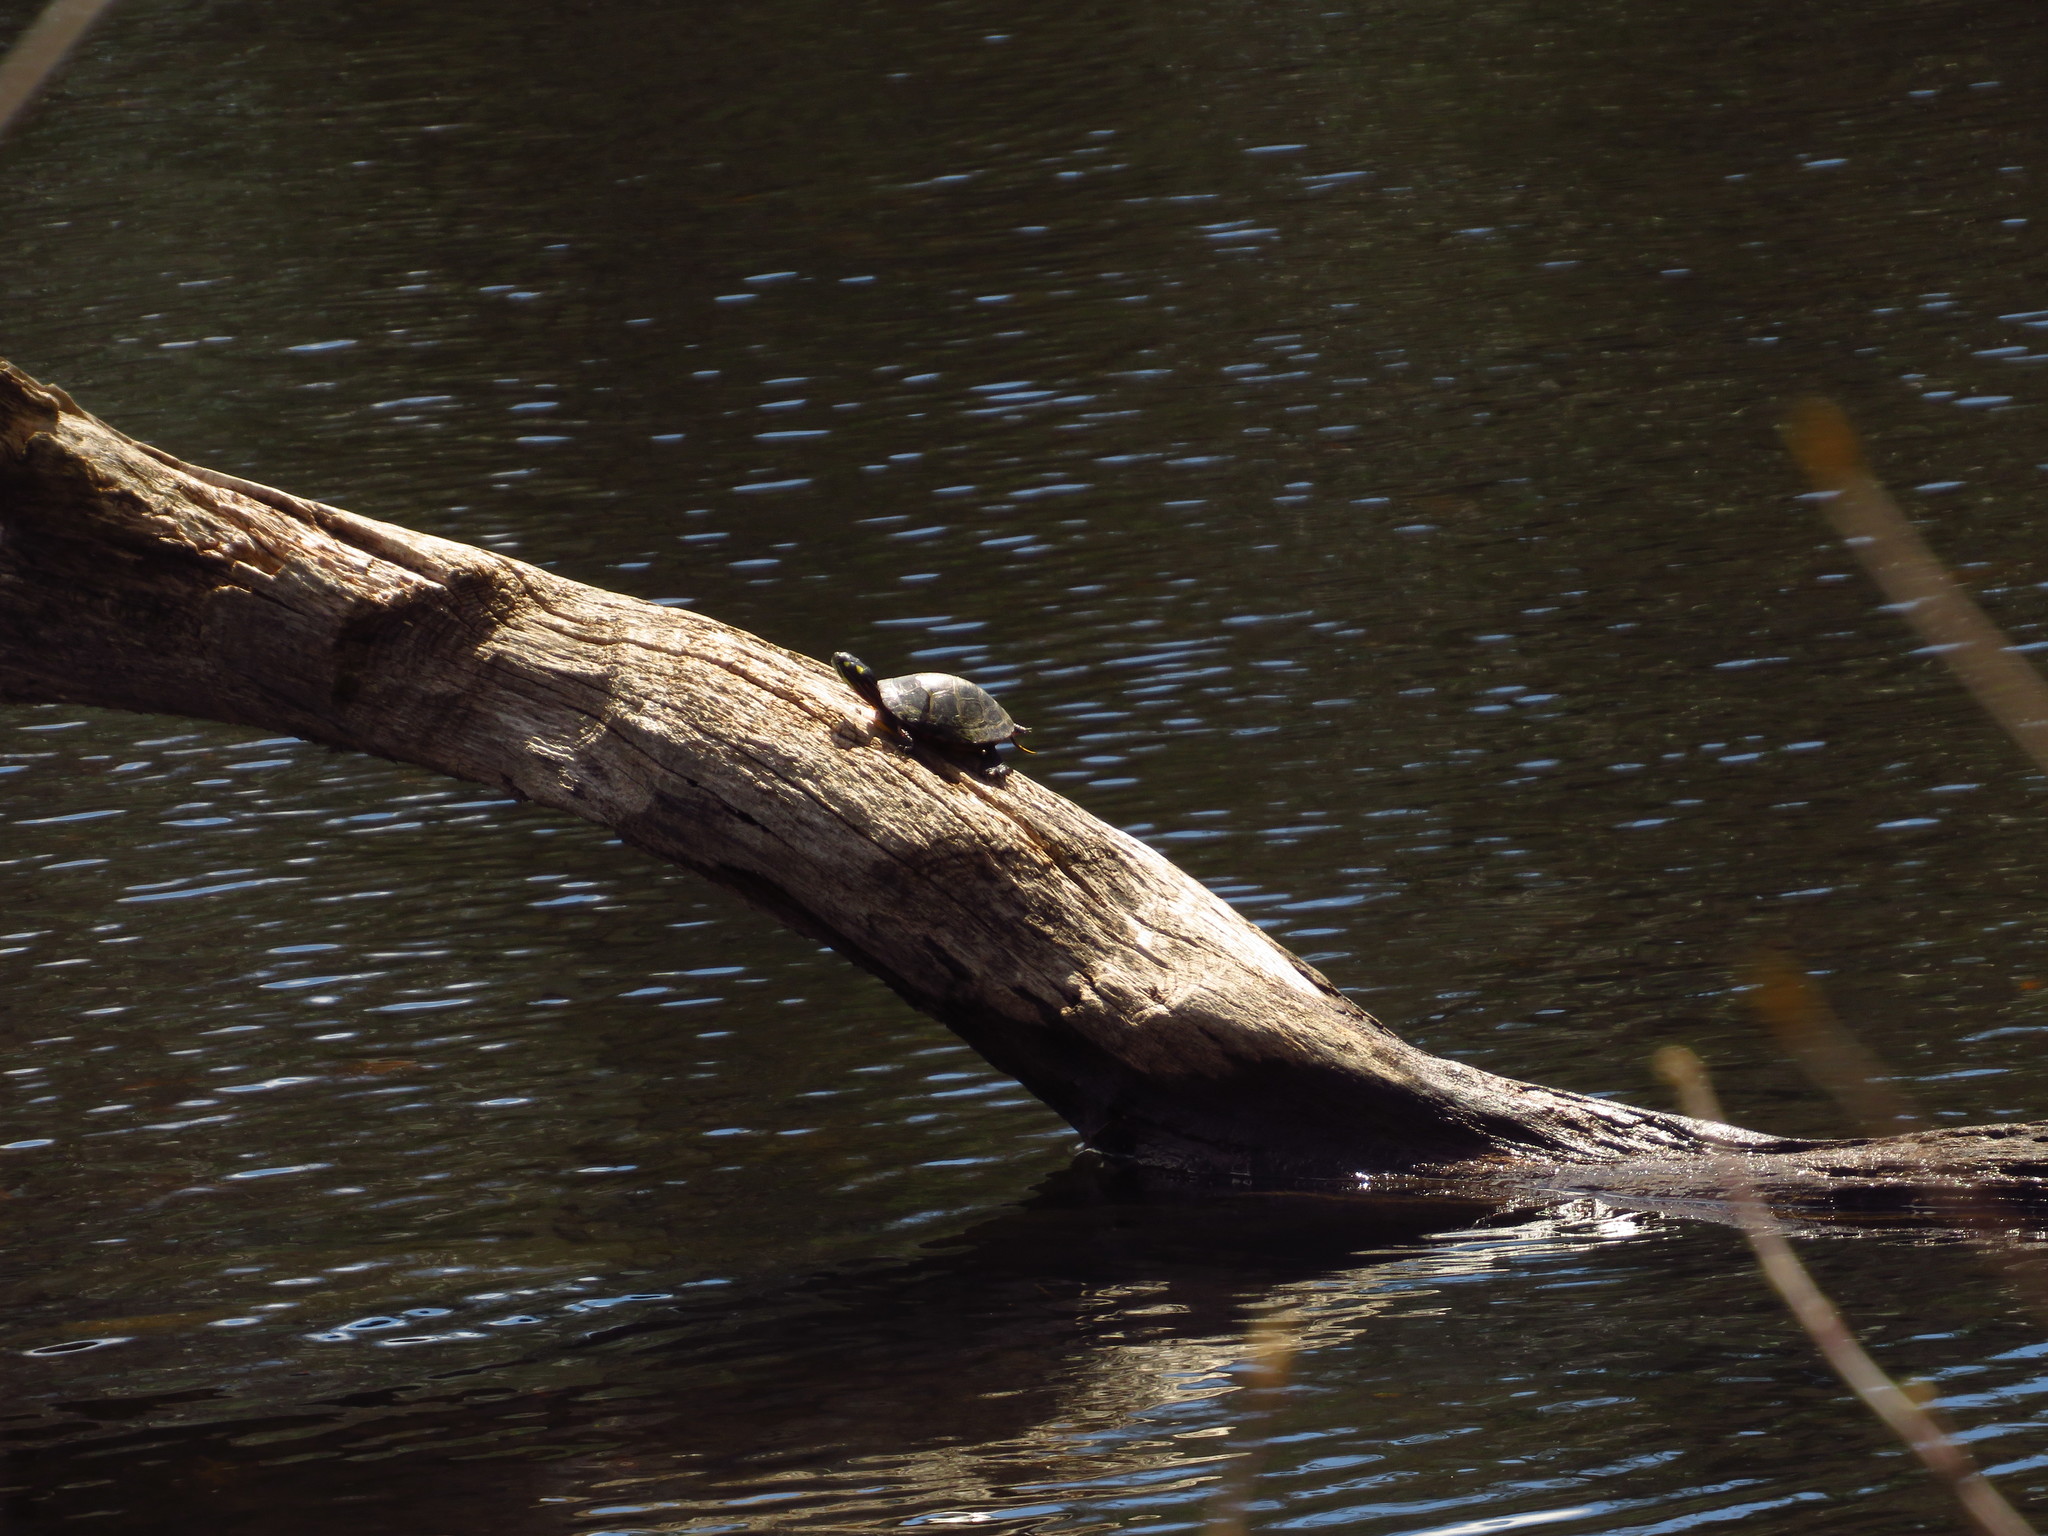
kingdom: Animalia
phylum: Chordata
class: Testudines
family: Emydidae
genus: Chrysemys
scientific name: Chrysemys picta
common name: Painted turtle
